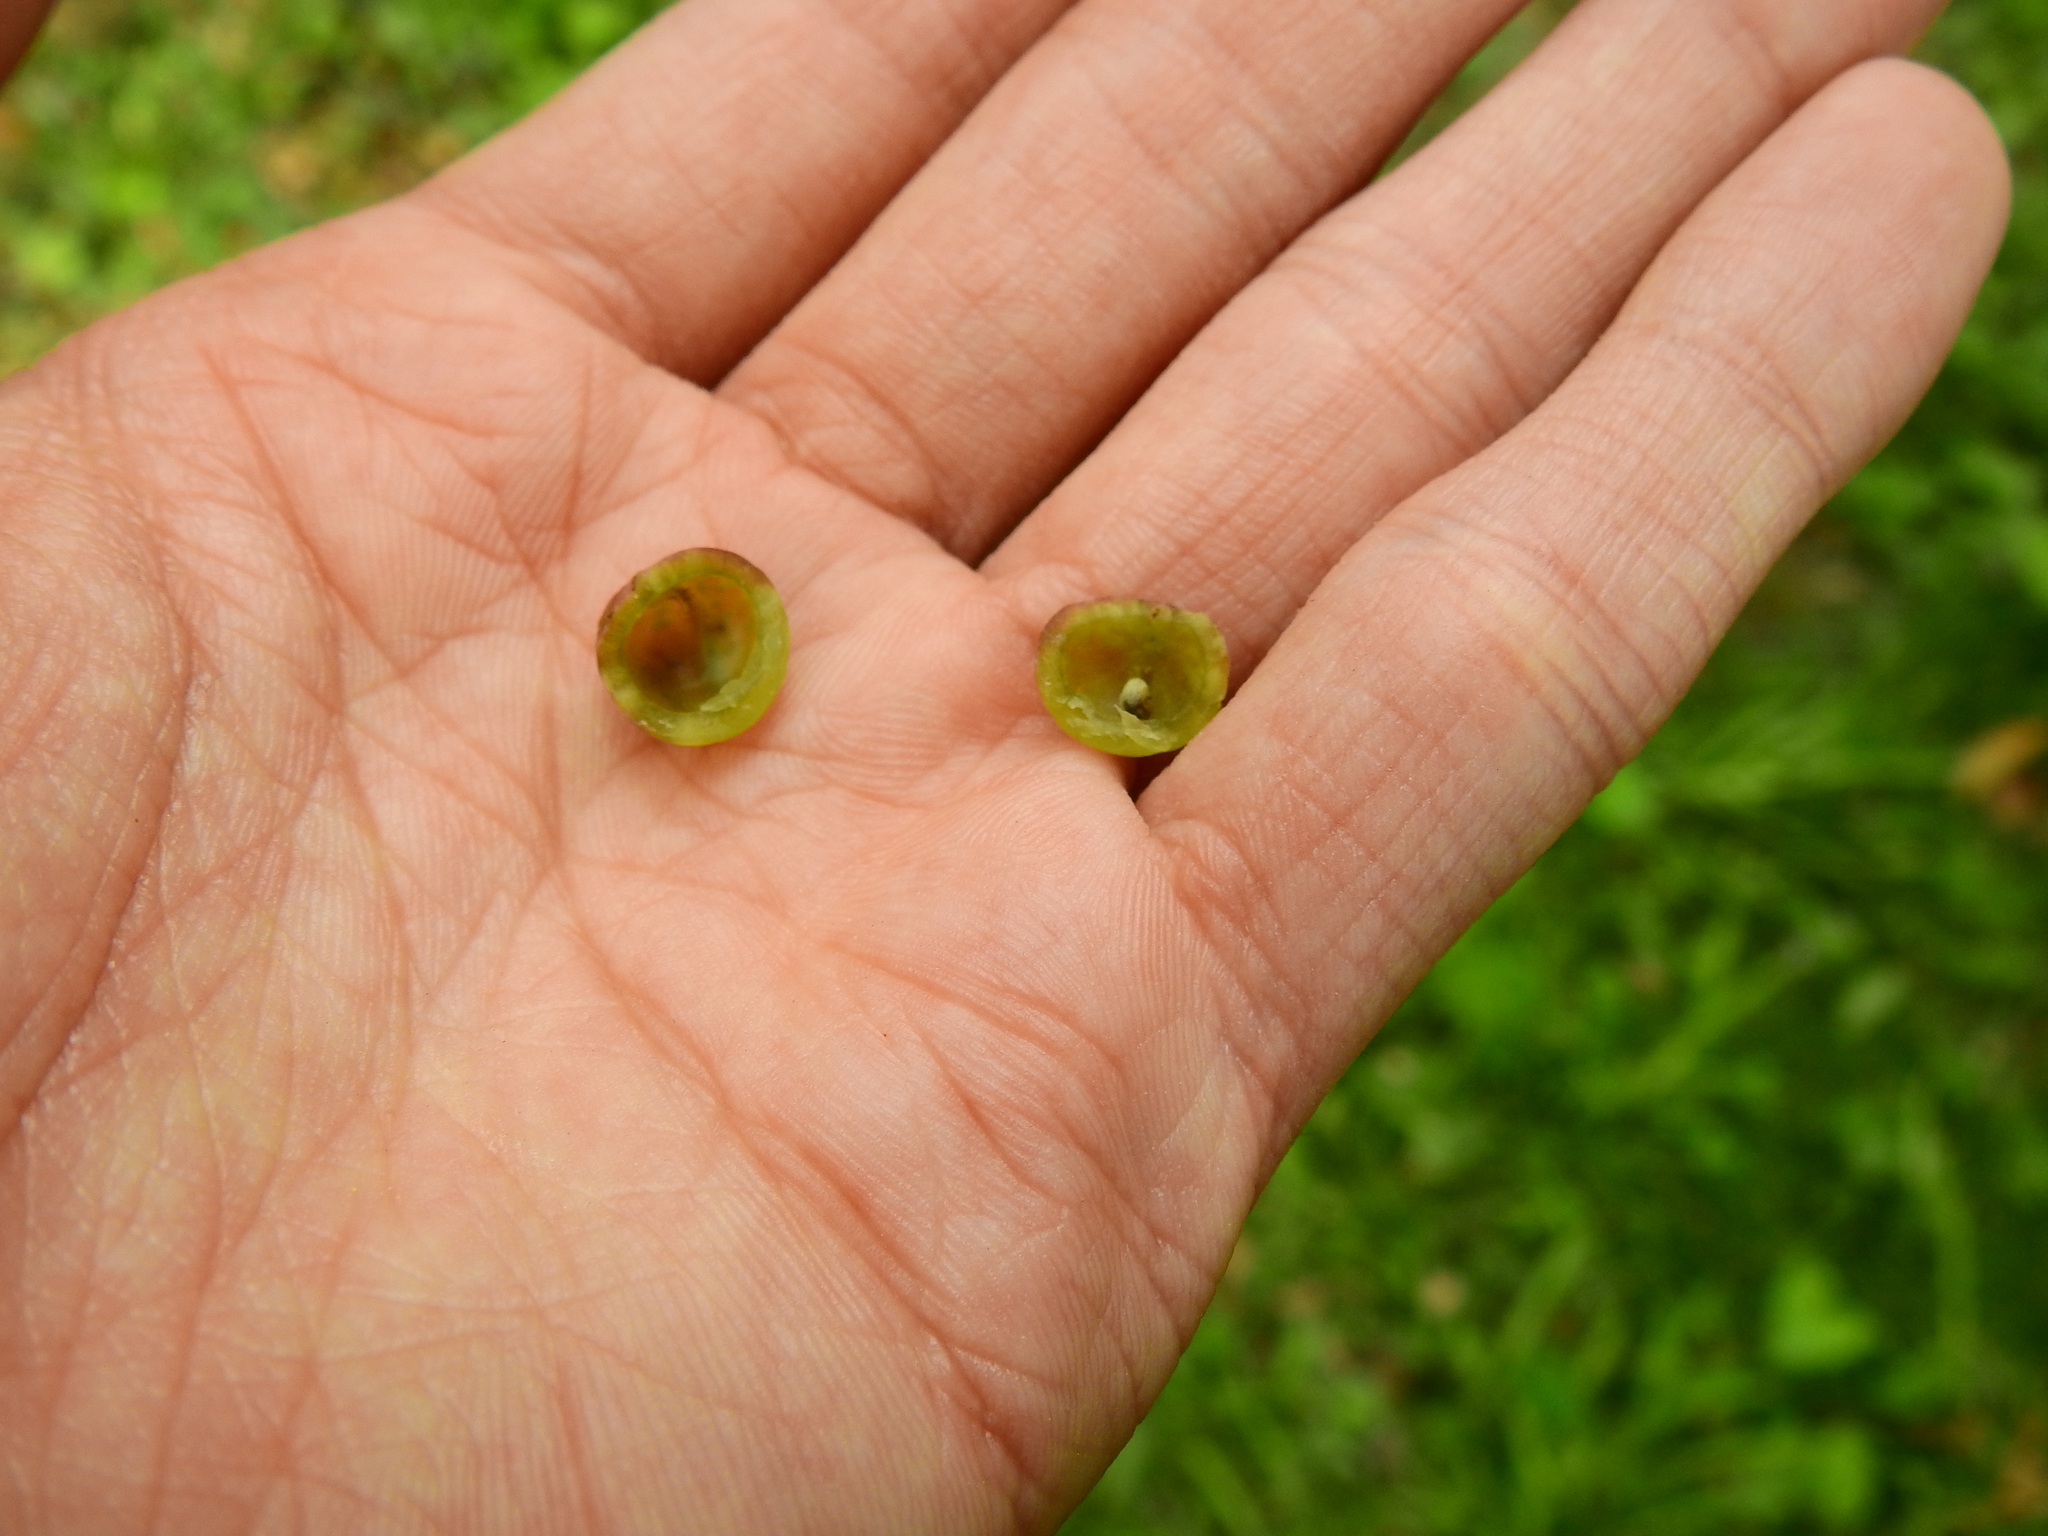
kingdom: Animalia
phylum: Arthropoda
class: Insecta
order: Hymenoptera
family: Cynipidae
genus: Dryocosmus
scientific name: Dryocosmus quercuspalustris
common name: Succulent oak gall wasp
